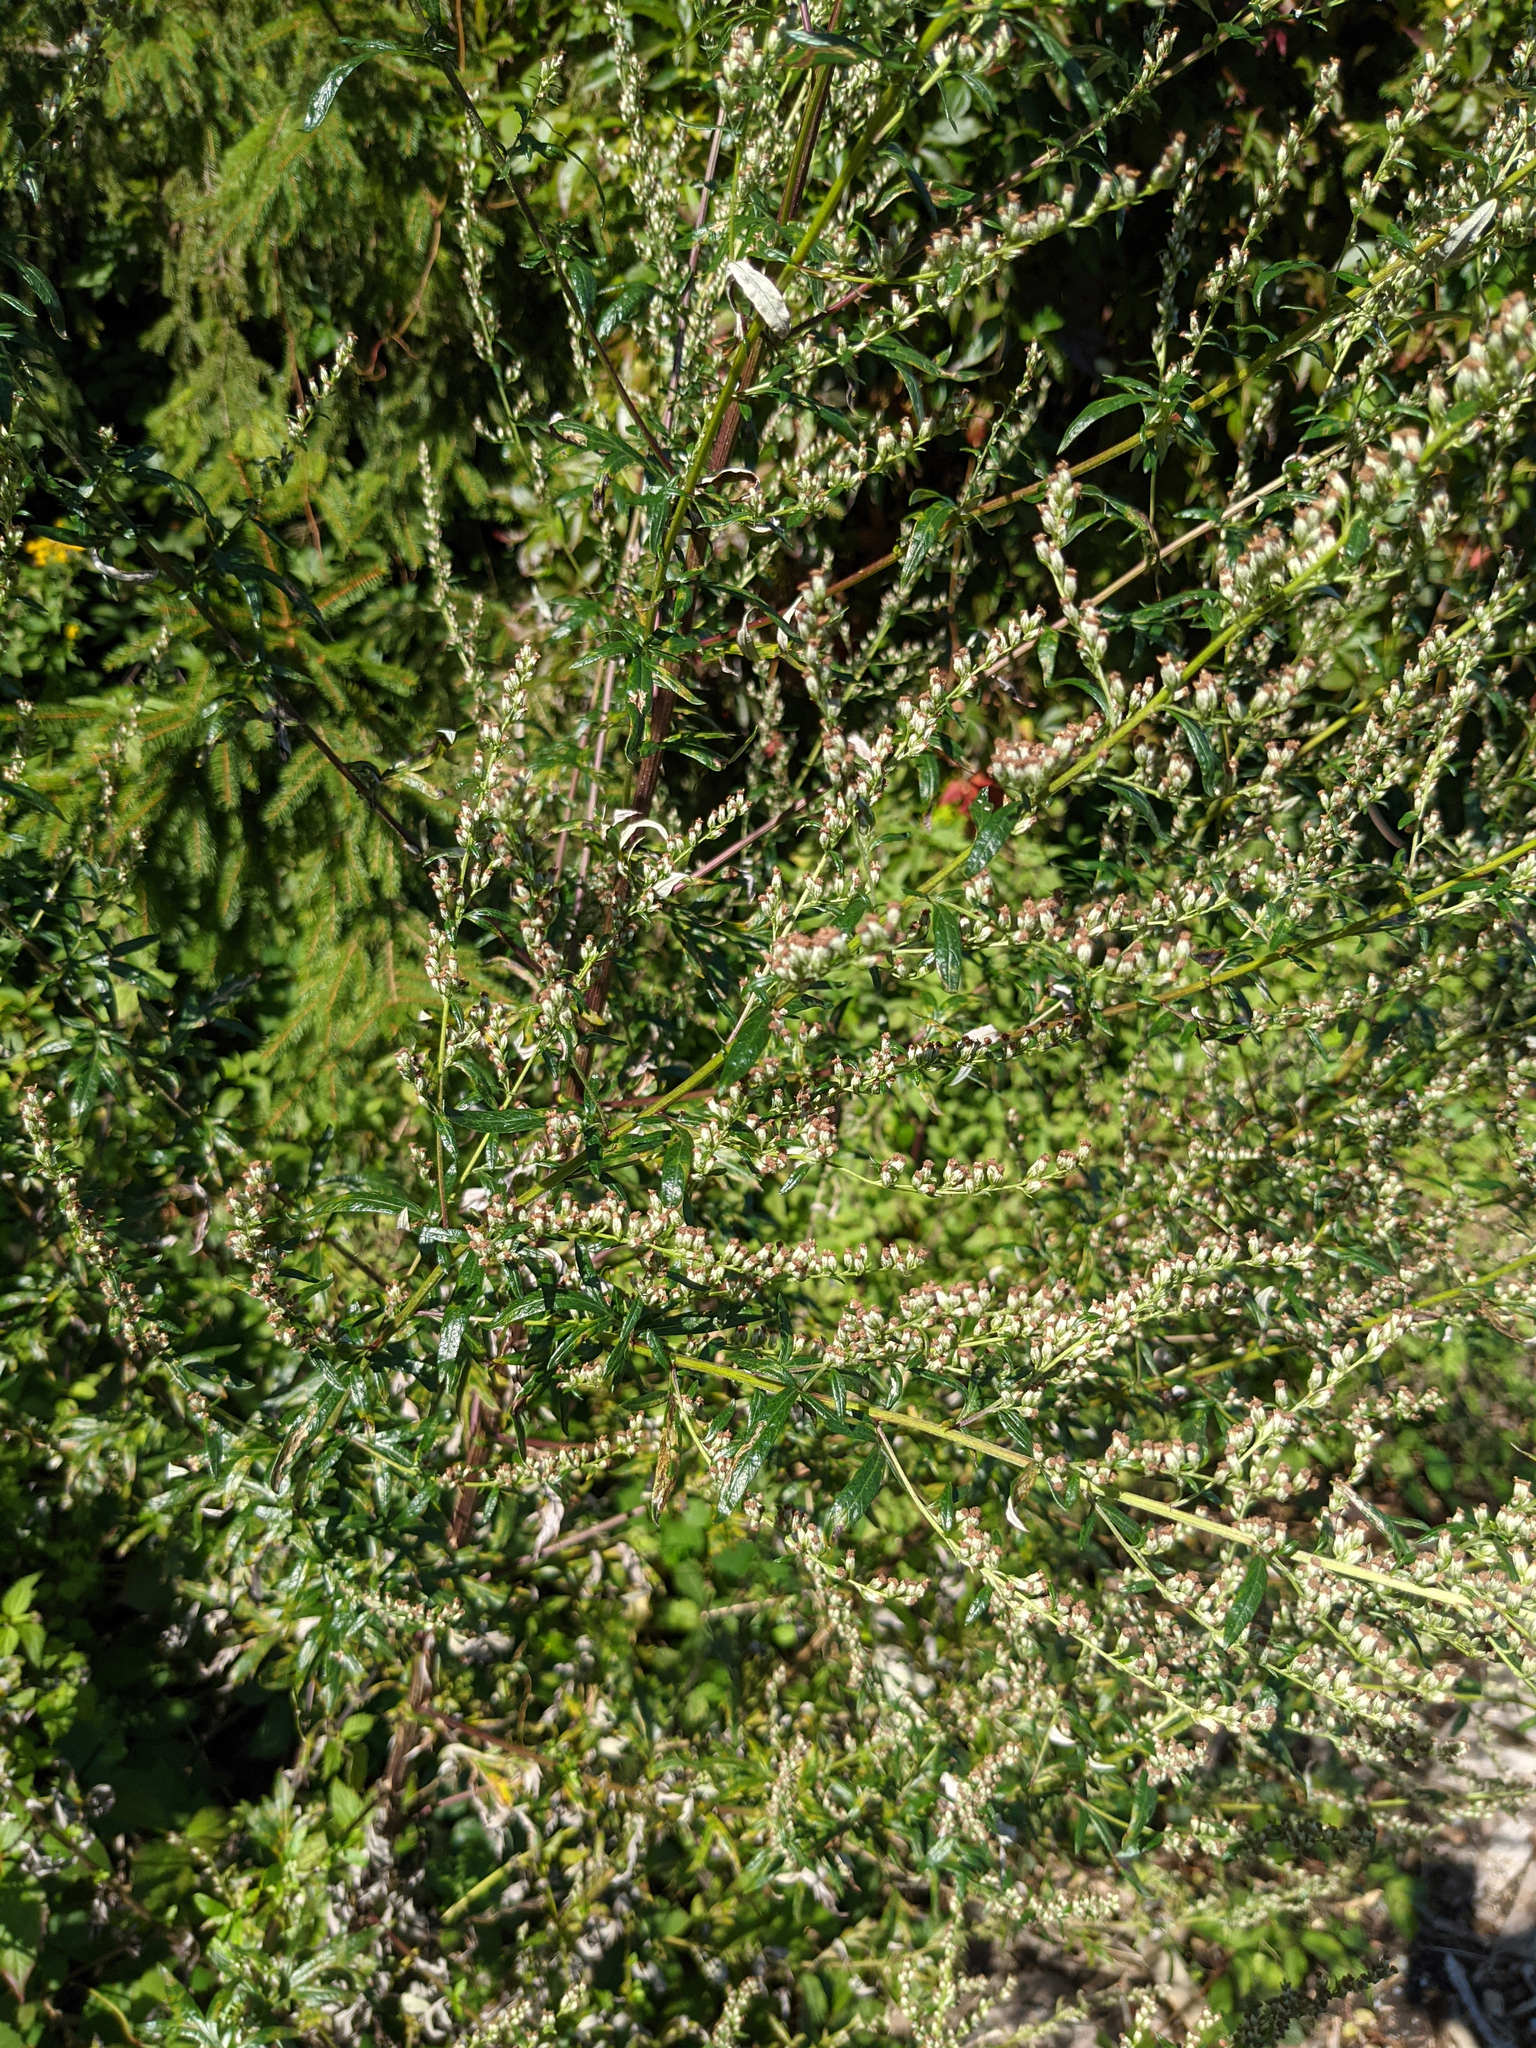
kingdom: Plantae
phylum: Tracheophyta
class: Magnoliopsida
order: Asterales
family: Asteraceae
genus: Artemisia
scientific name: Artemisia vulgaris
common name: Mugwort
